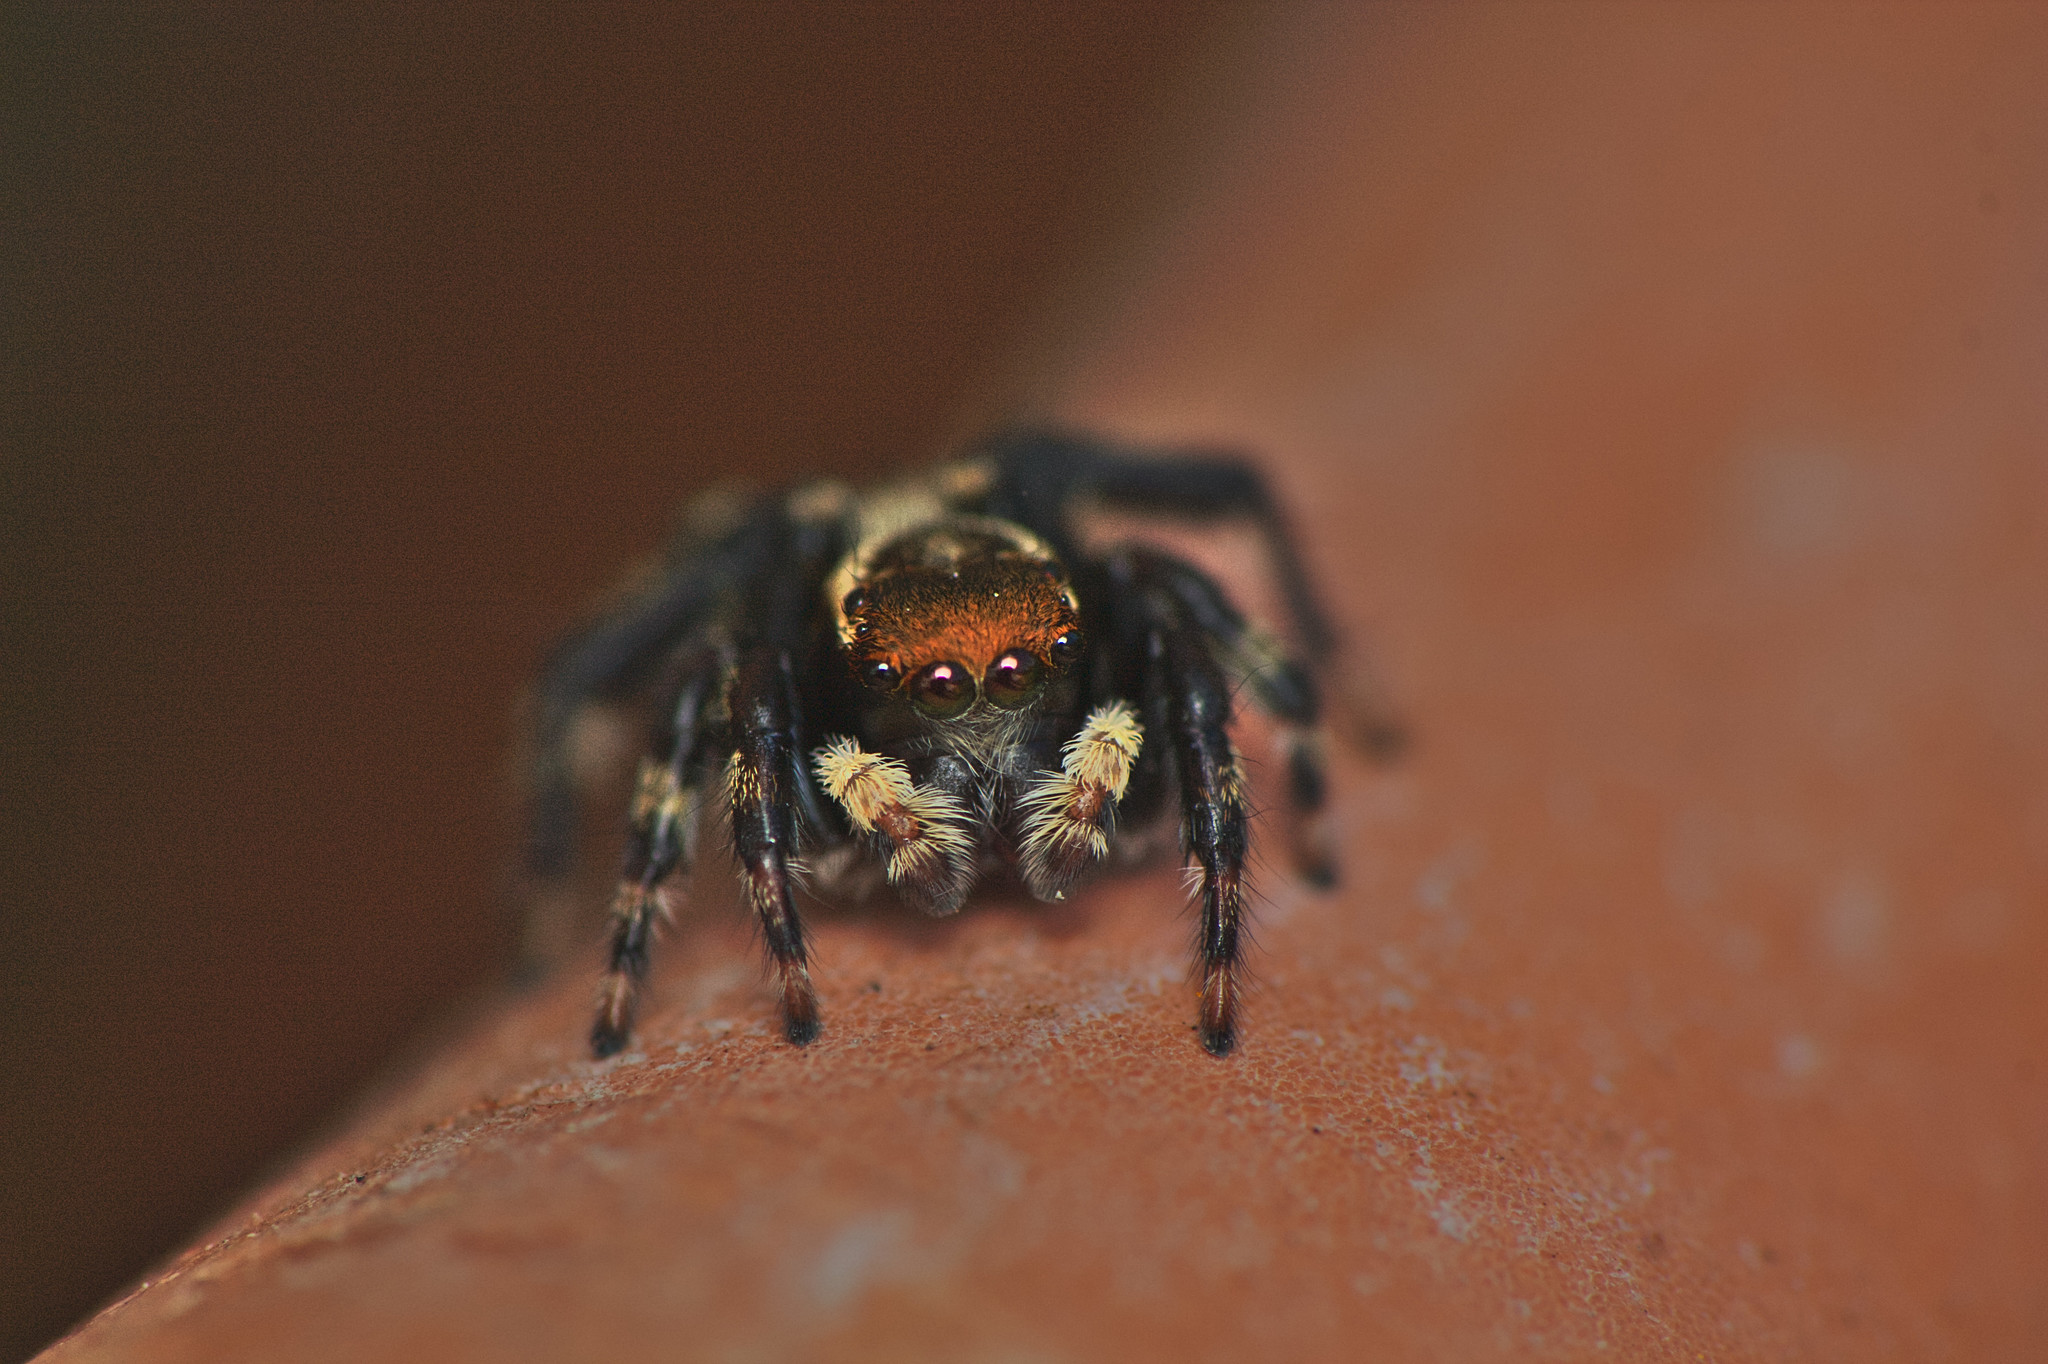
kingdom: Animalia
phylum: Arthropoda
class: Arachnida
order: Araneae
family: Salticidae
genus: Maratus
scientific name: Maratus griseus
